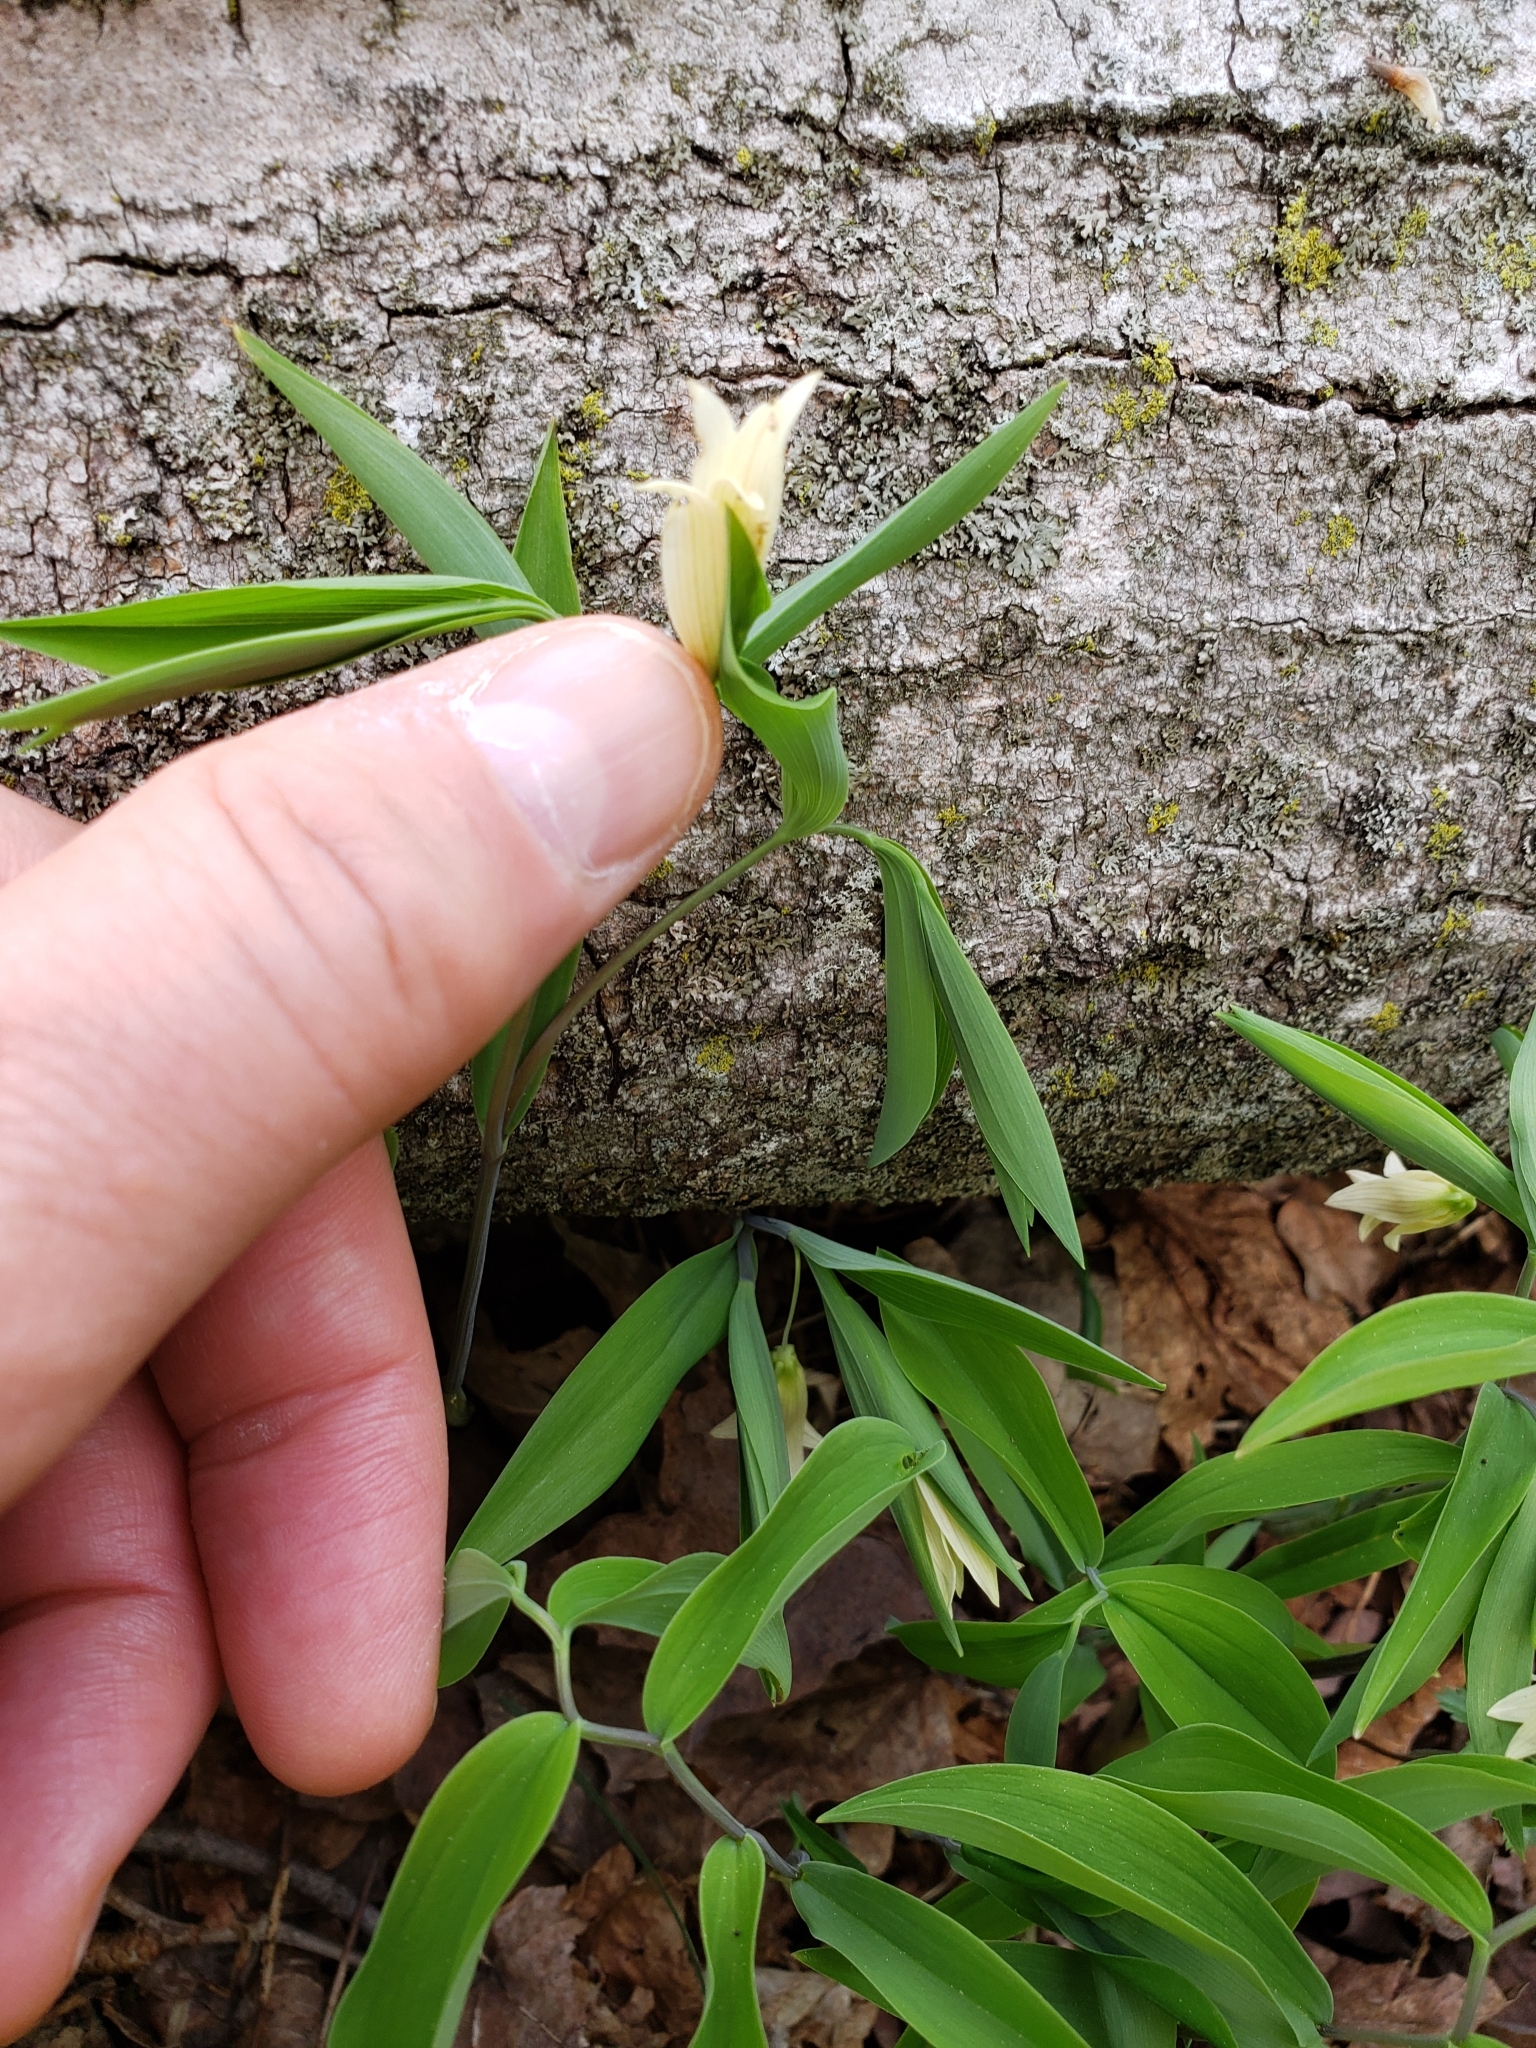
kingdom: Plantae
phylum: Tracheophyta
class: Liliopsida
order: Liliales
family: Colchicaceae
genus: Uvularia
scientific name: Uvularia sessilifolia
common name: Straw-lily
